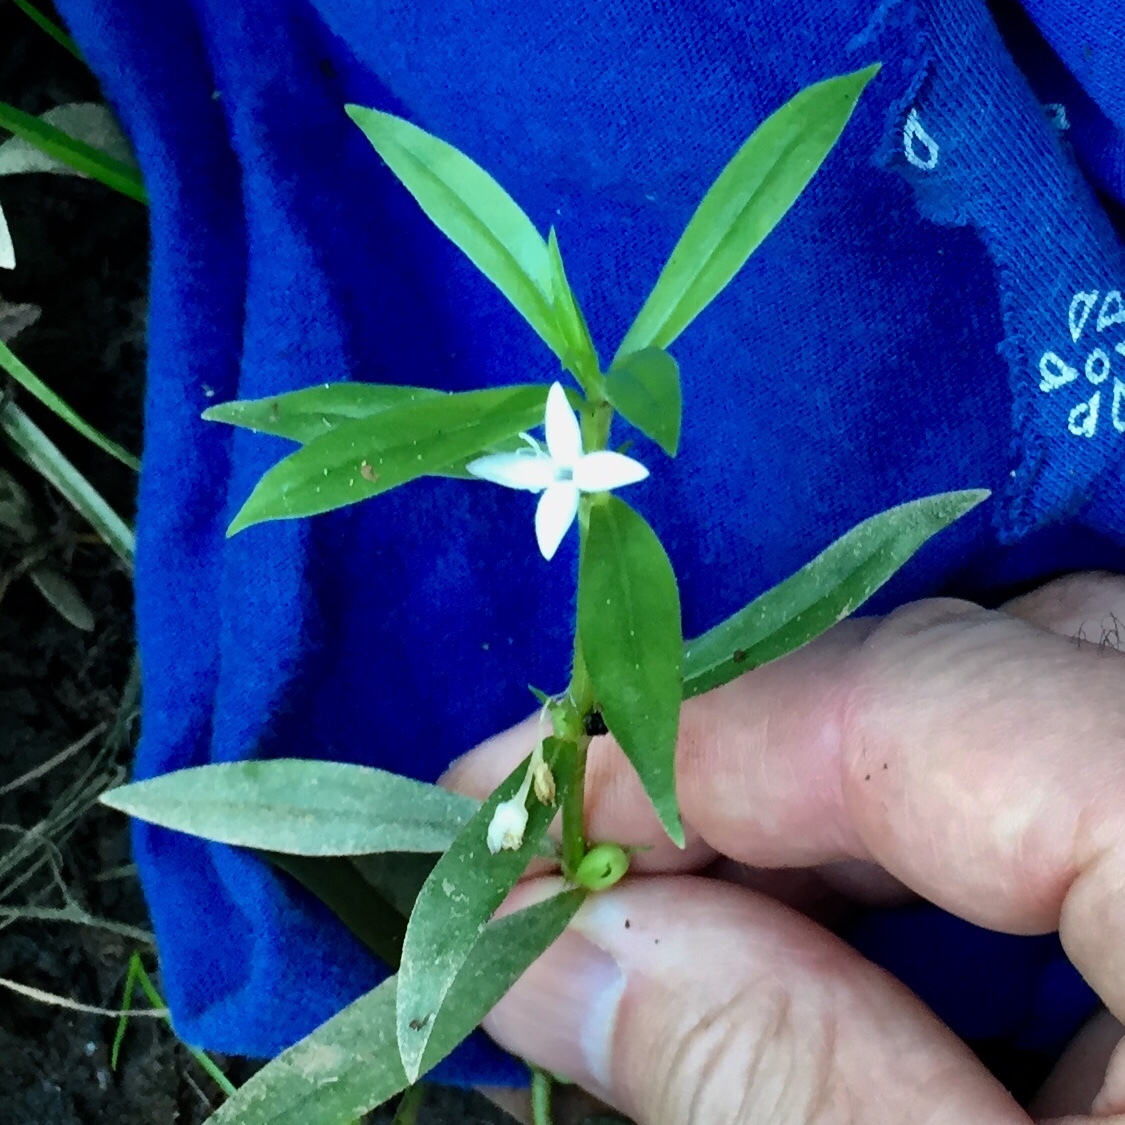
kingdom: Plantae
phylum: Tracheophyta
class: Magnoliopsida
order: Gentianales
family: Rubiaceae
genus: Diodia
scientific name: Diodia virginiana
